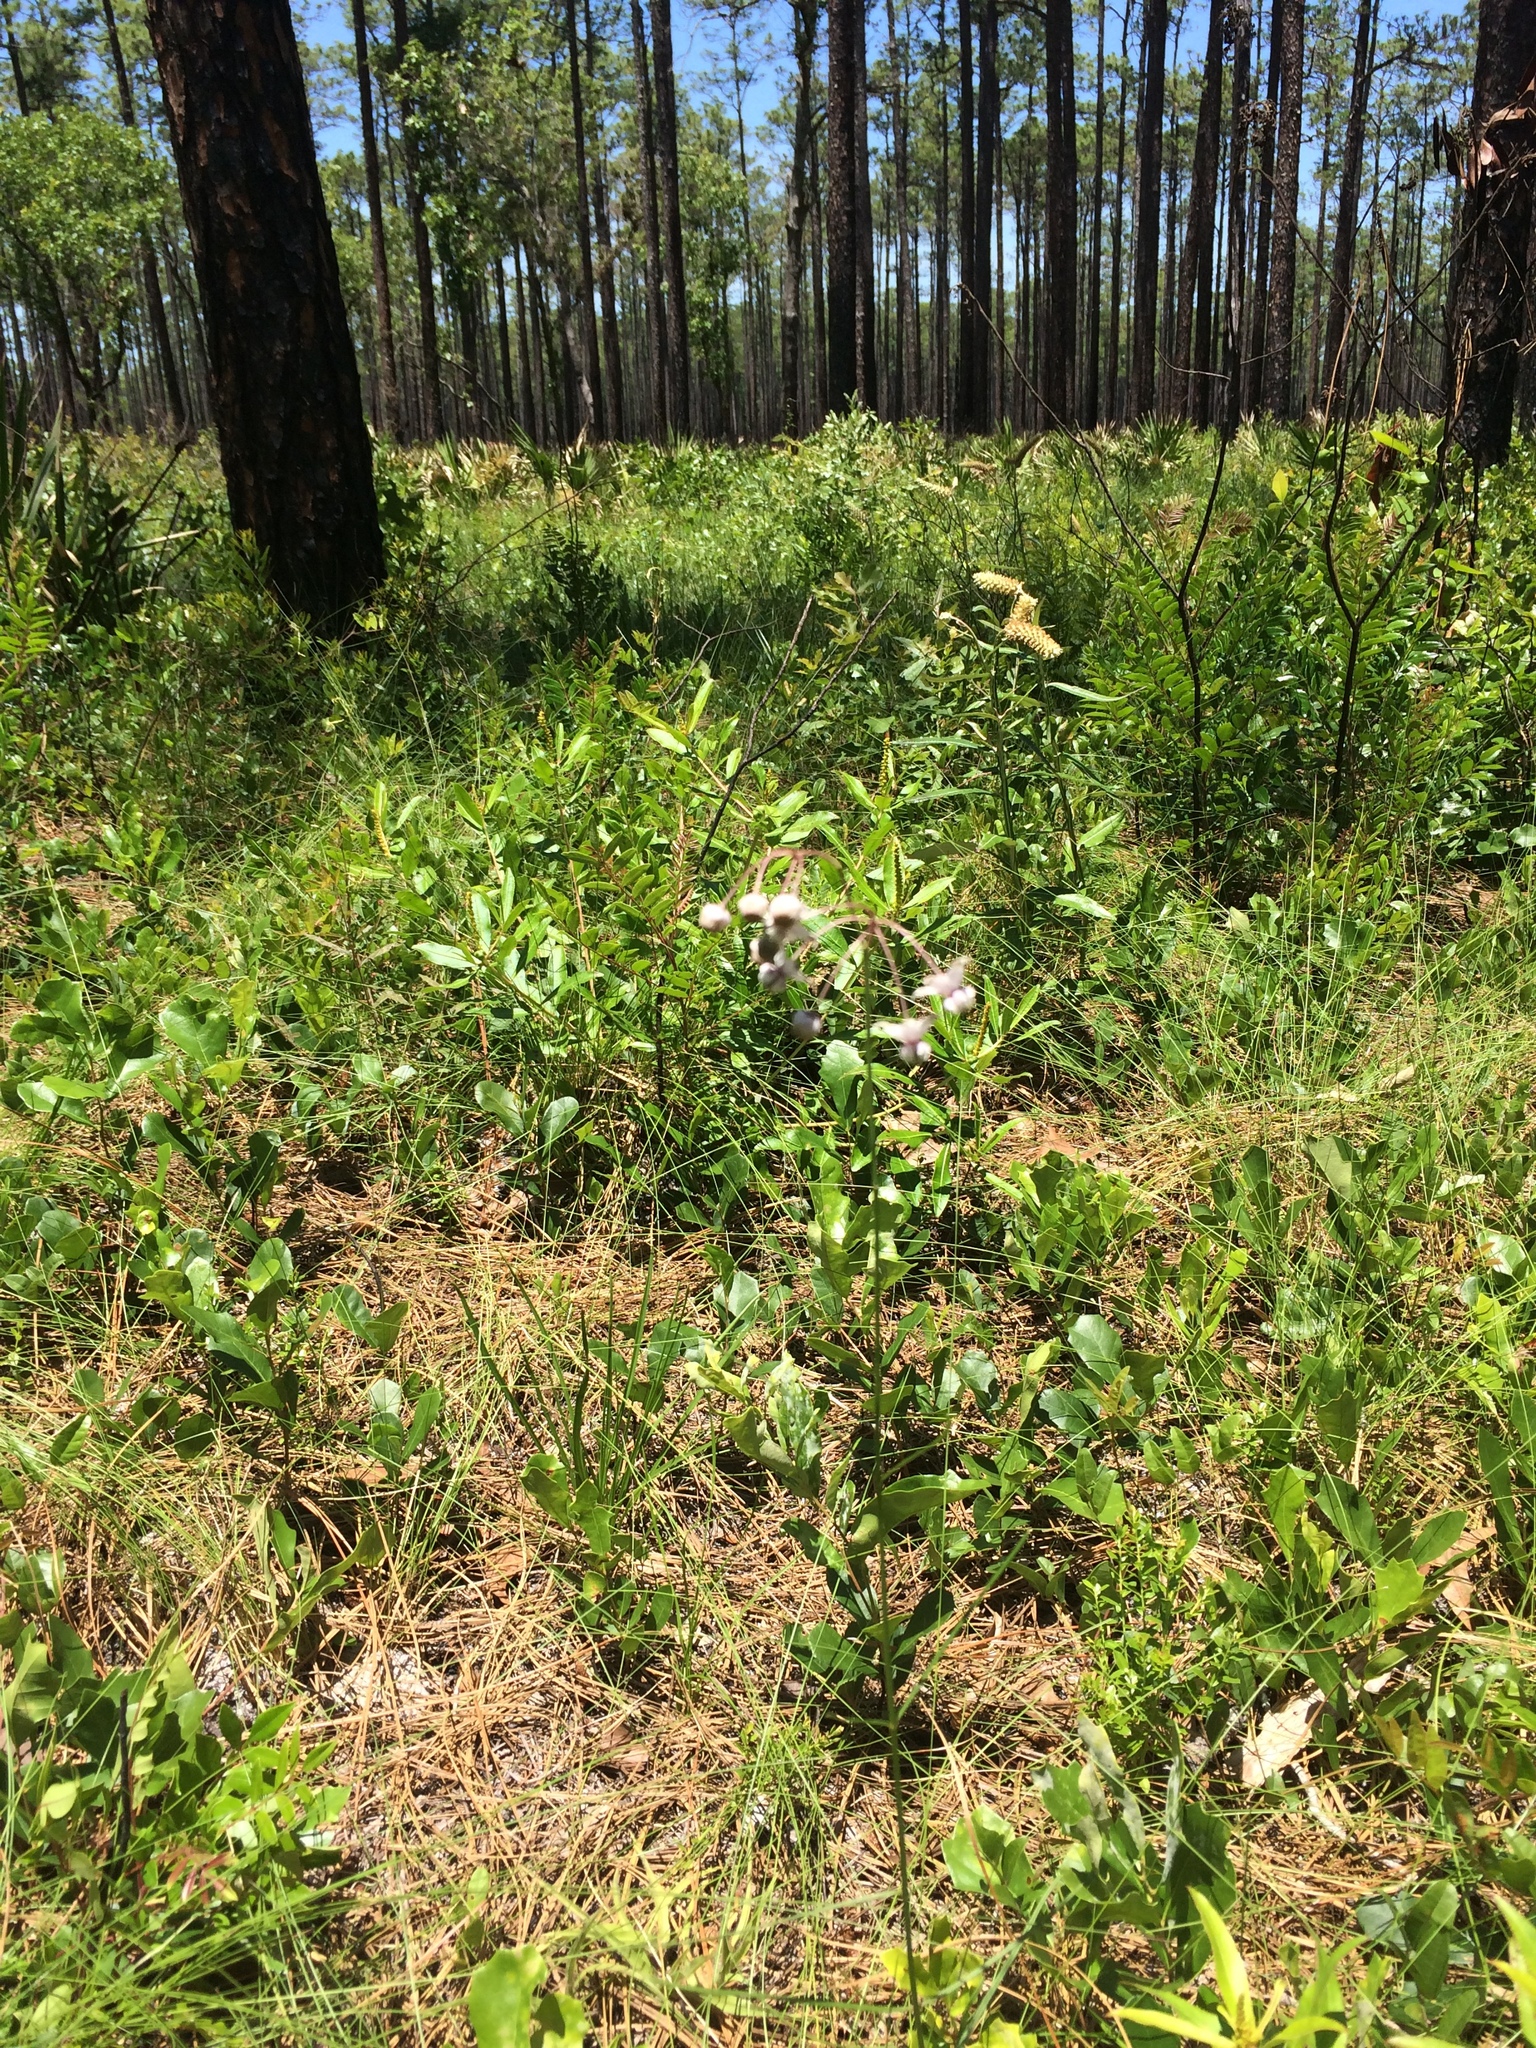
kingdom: Plantae
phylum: Tracheophyta
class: Magnoliopsida
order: Gentianales
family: Apocynaceae
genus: Asclepias
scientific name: Asclepias cinerea
